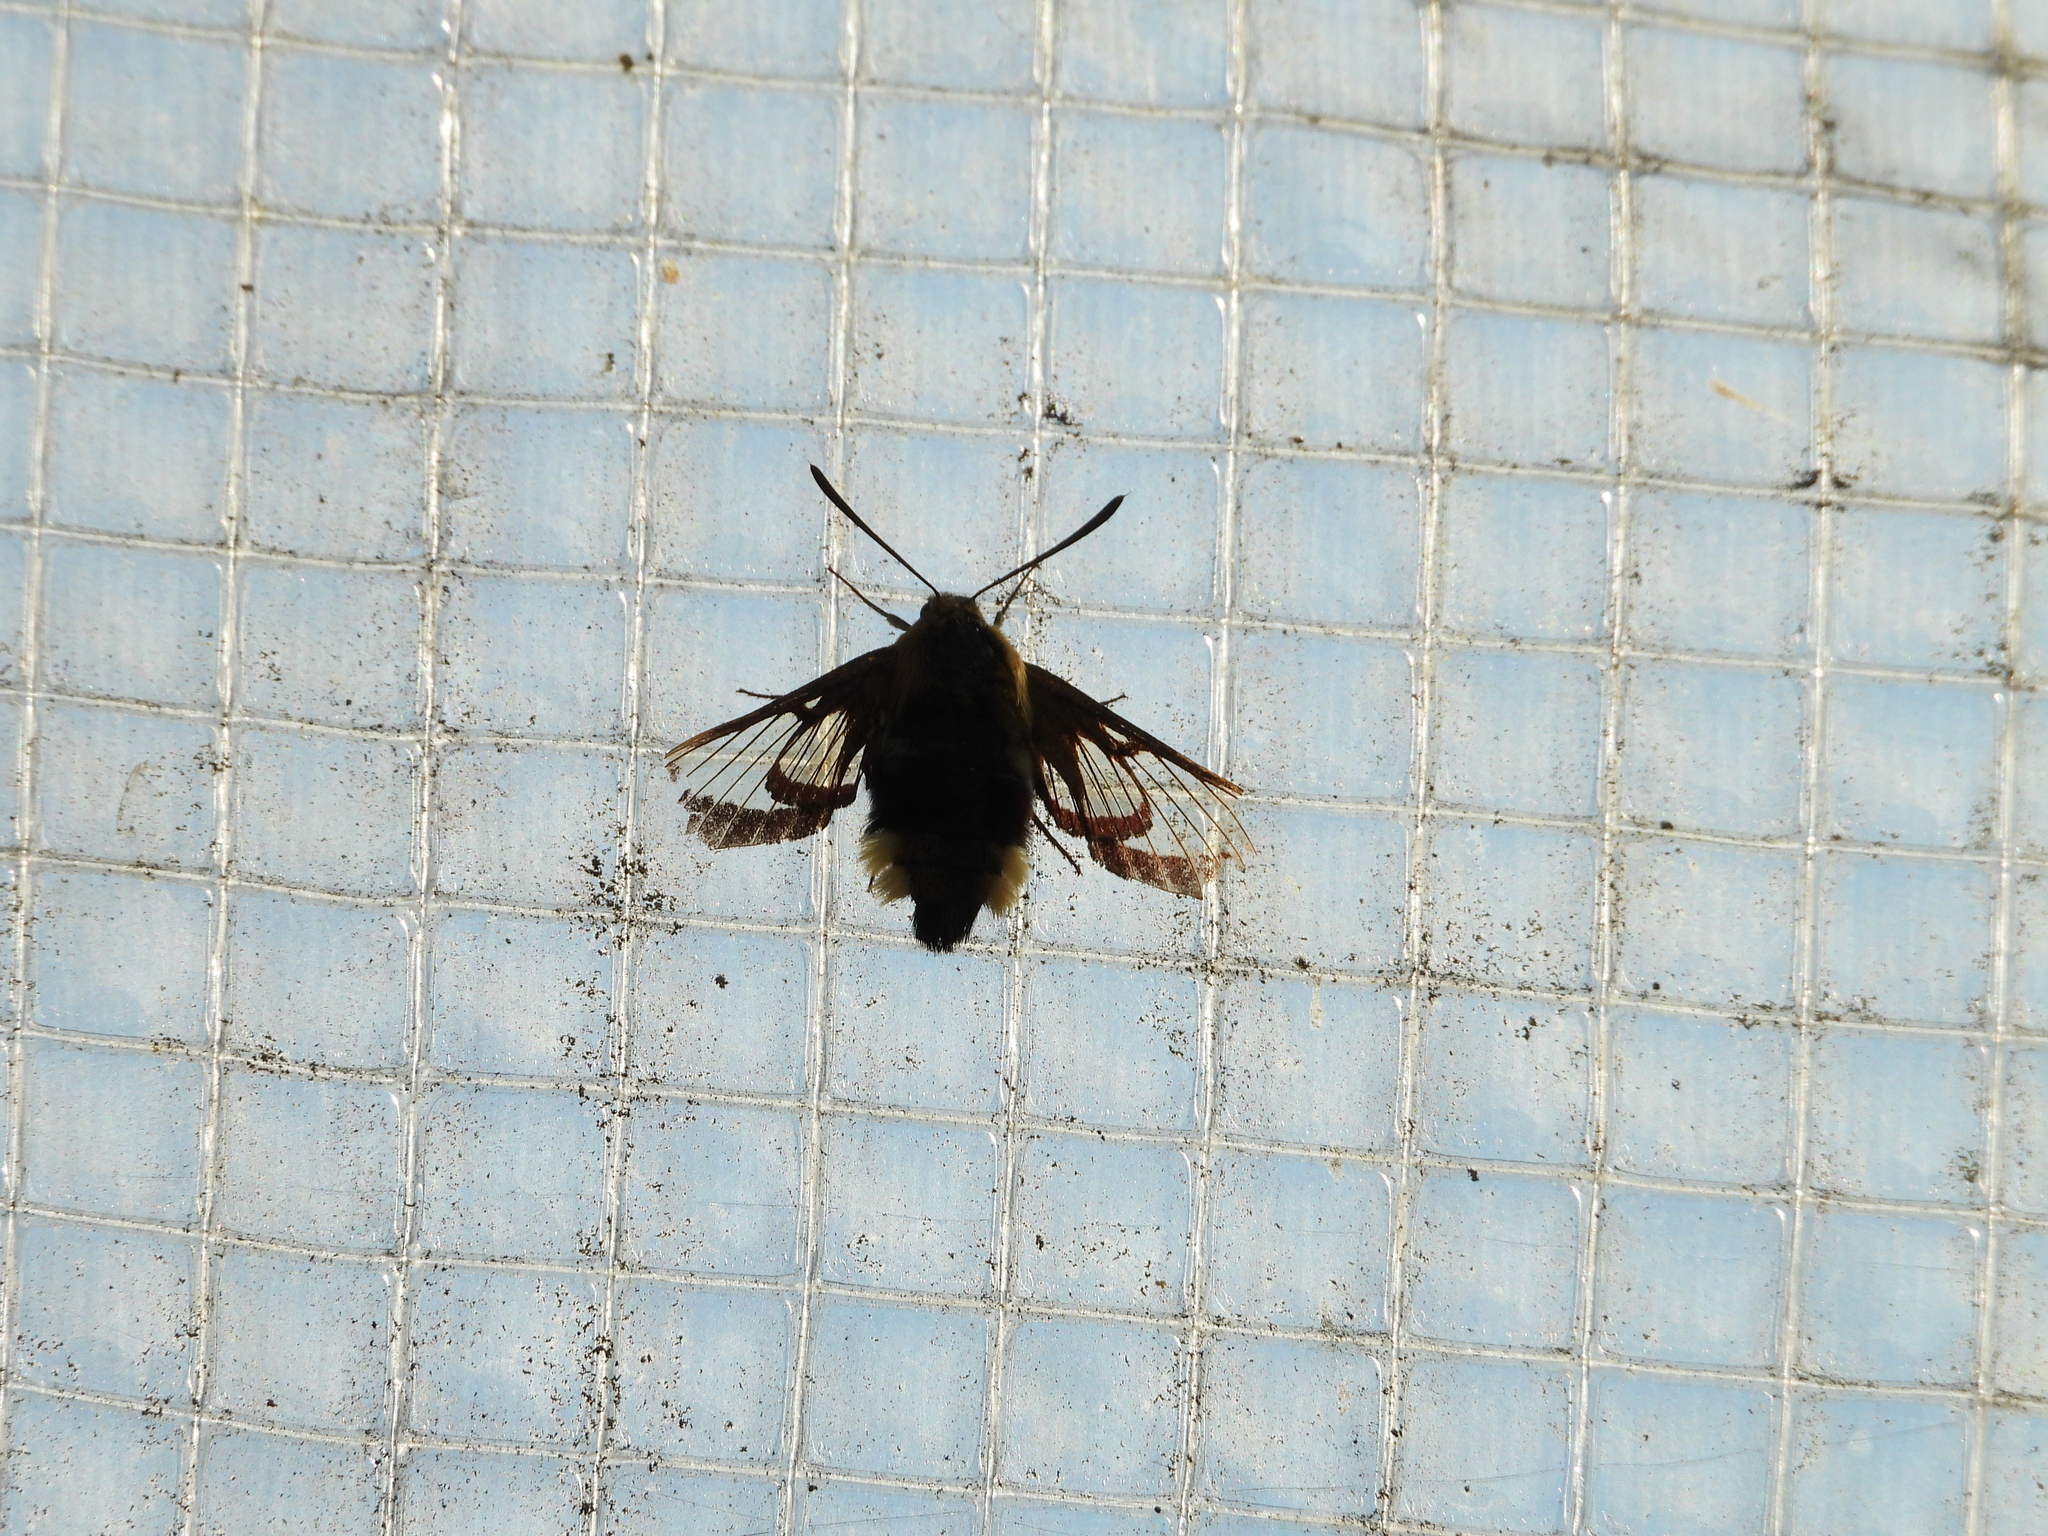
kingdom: Animalia
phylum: Arthropoda
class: Insecta
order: Lepidoptera
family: Sphingidae
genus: Hemaris
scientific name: Hemaris fuciformis
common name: Broad-bordered bee hawk-moth
